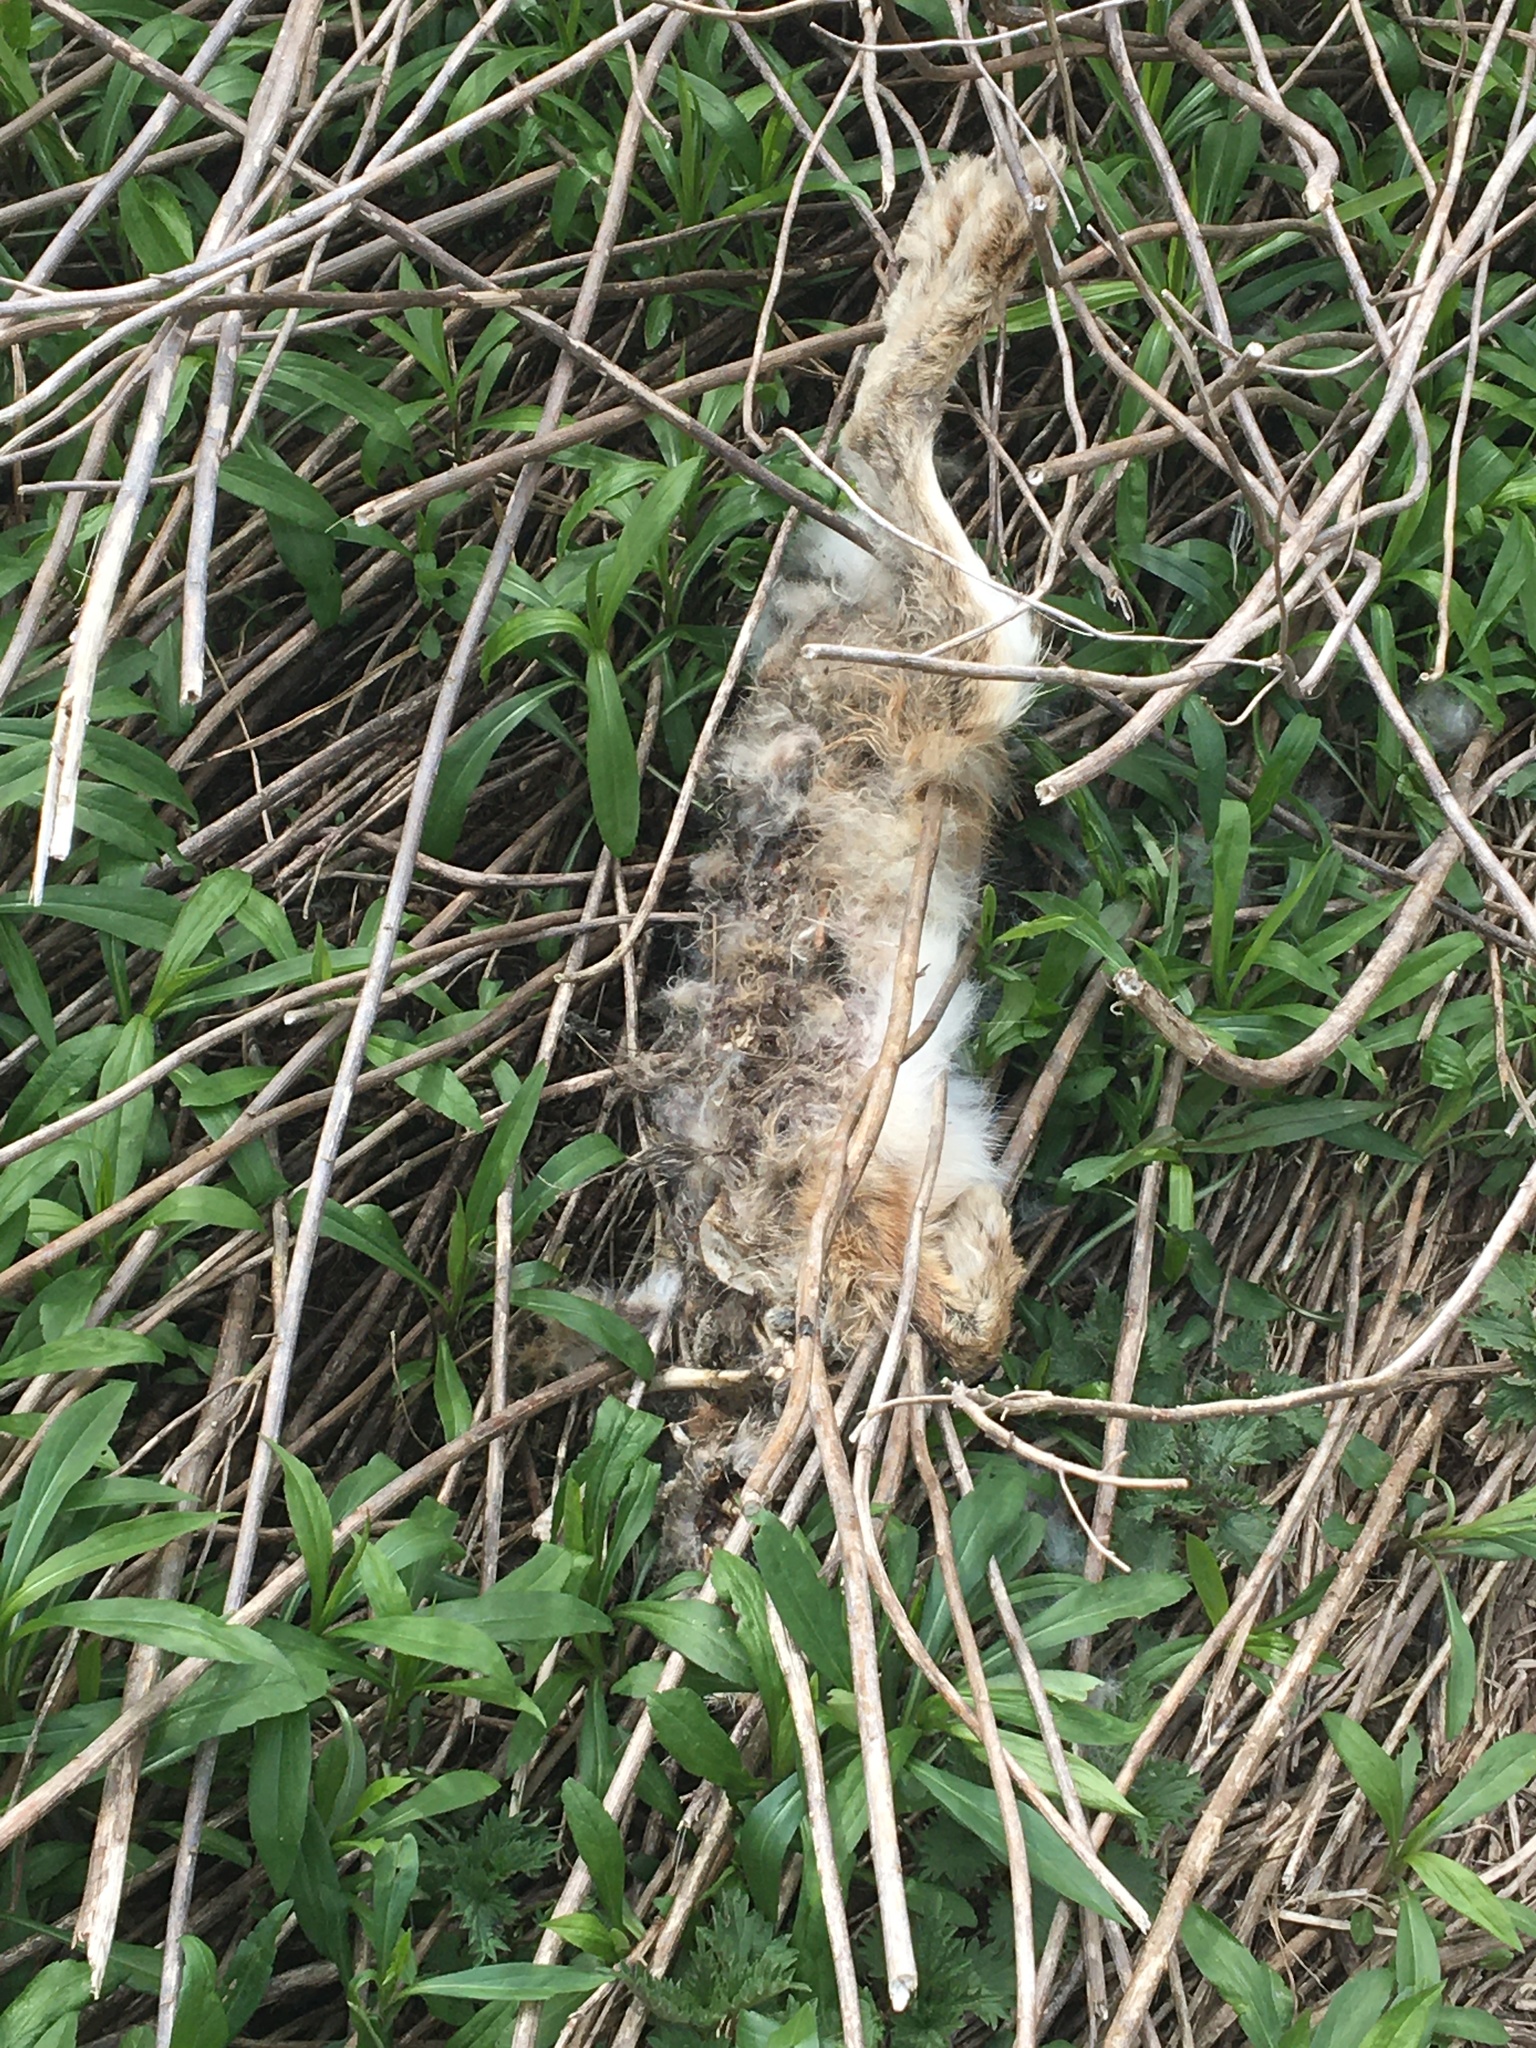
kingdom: Animalia
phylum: Chordata
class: Mammalia
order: Lagomorpha
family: Leporidae
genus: Lepus
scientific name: Lepus europaeus
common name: European hare
